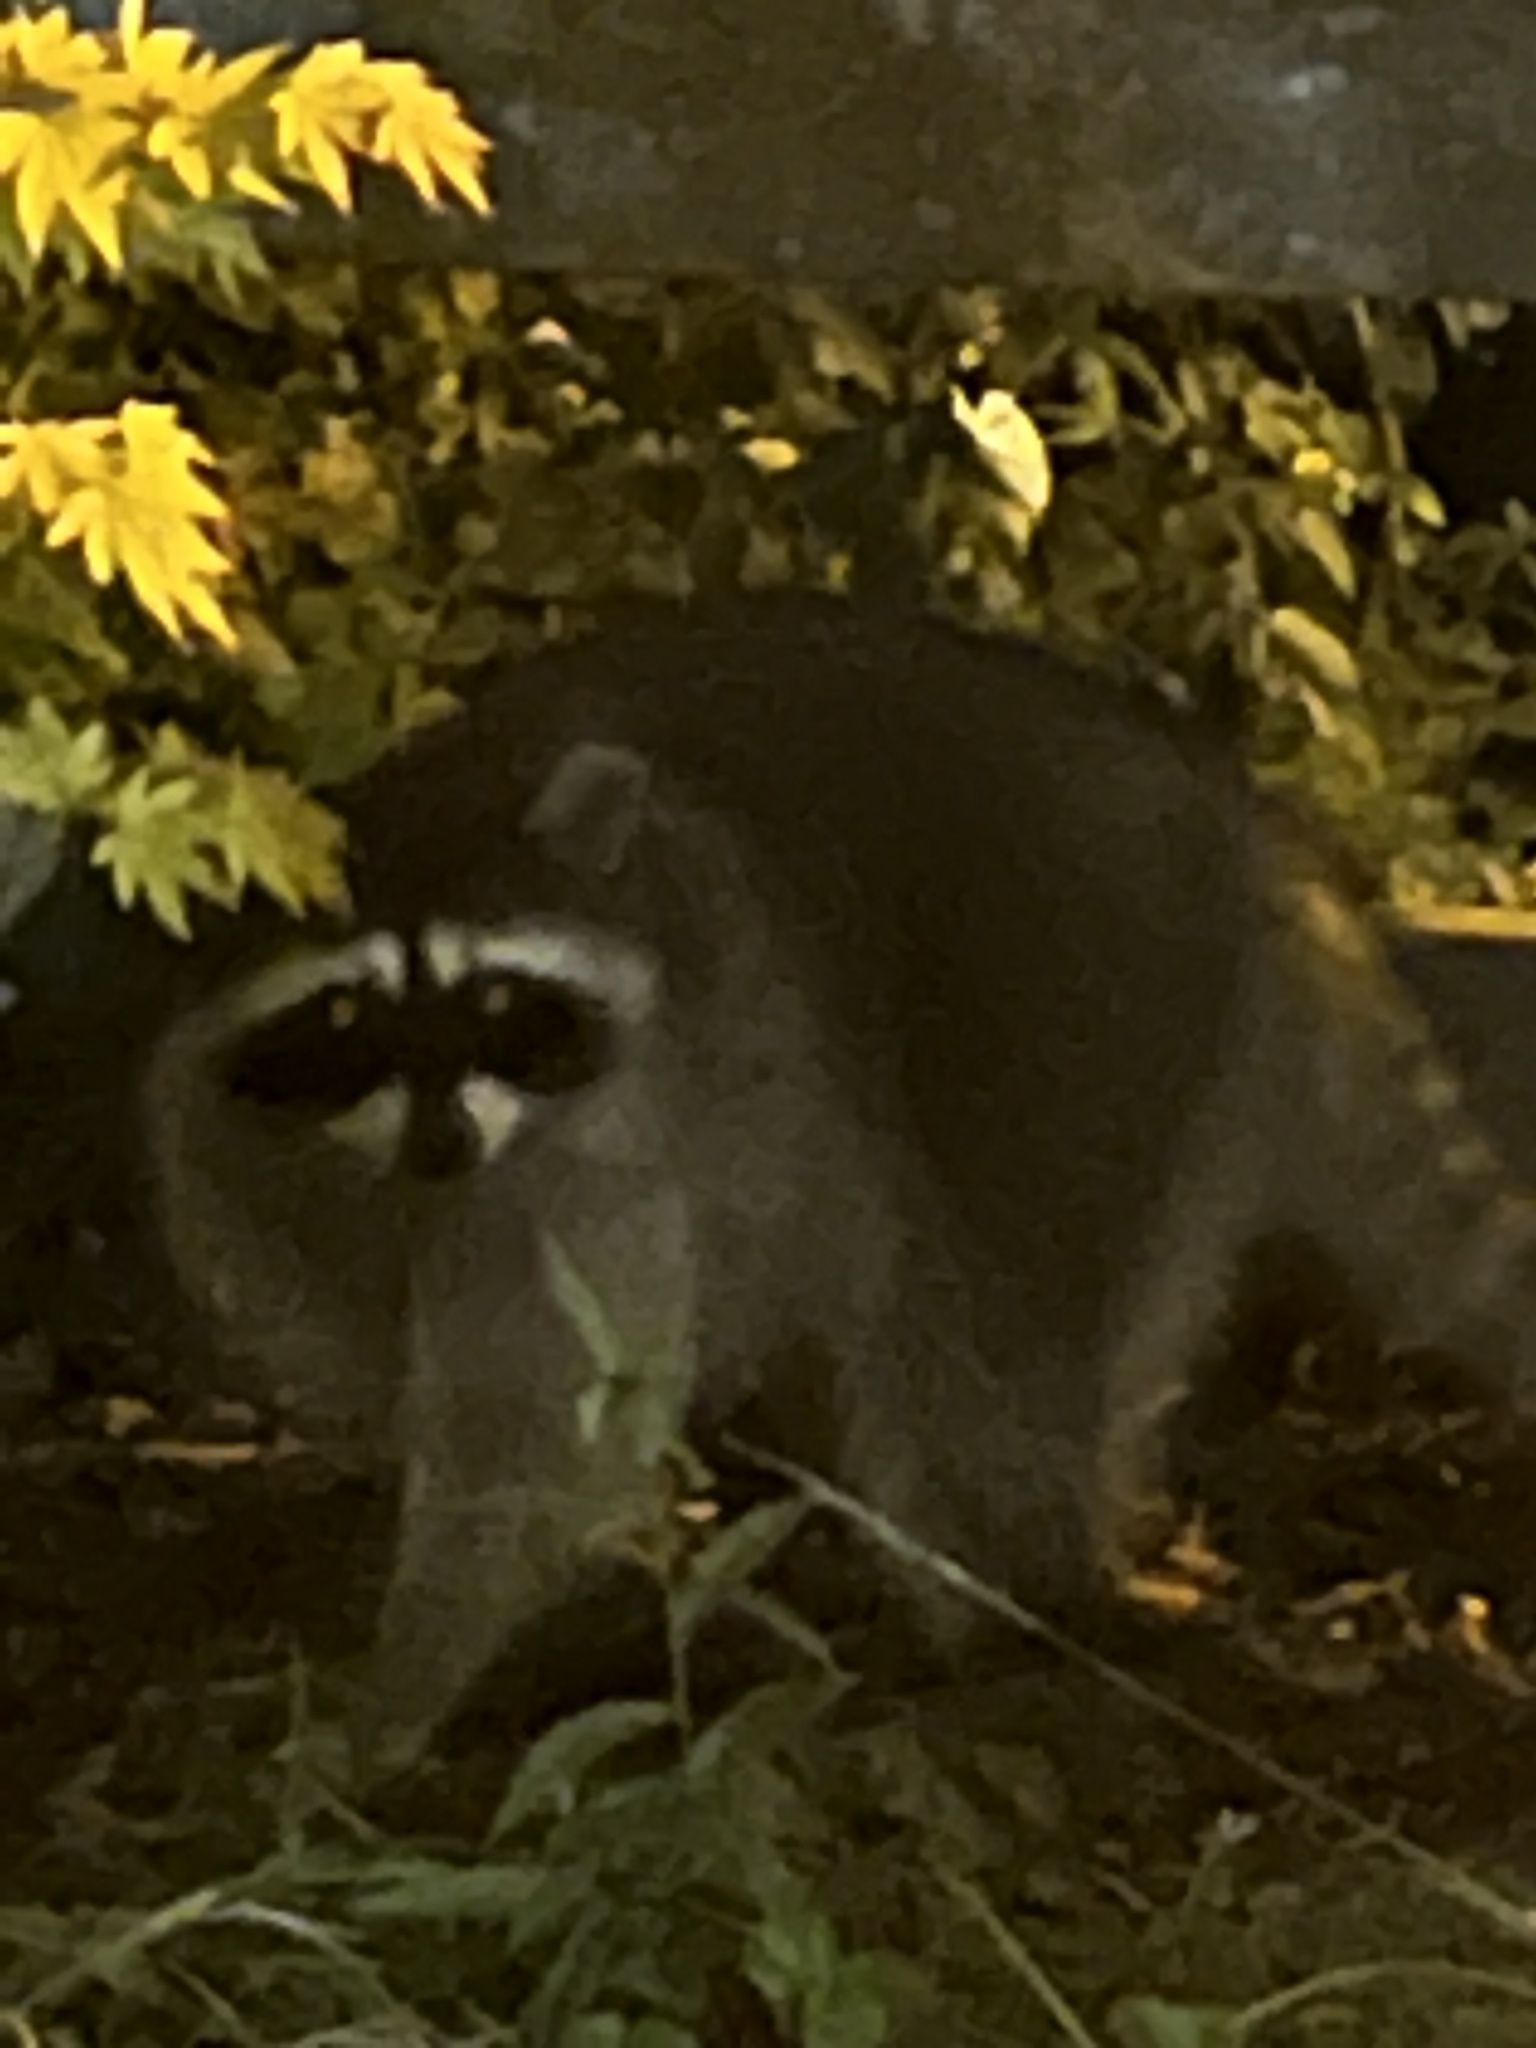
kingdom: Animalia
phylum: Chordata
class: Mammalia
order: Carnivora
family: Procyonidae
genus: Procyon
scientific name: Procyon lotor
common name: Raccoon
